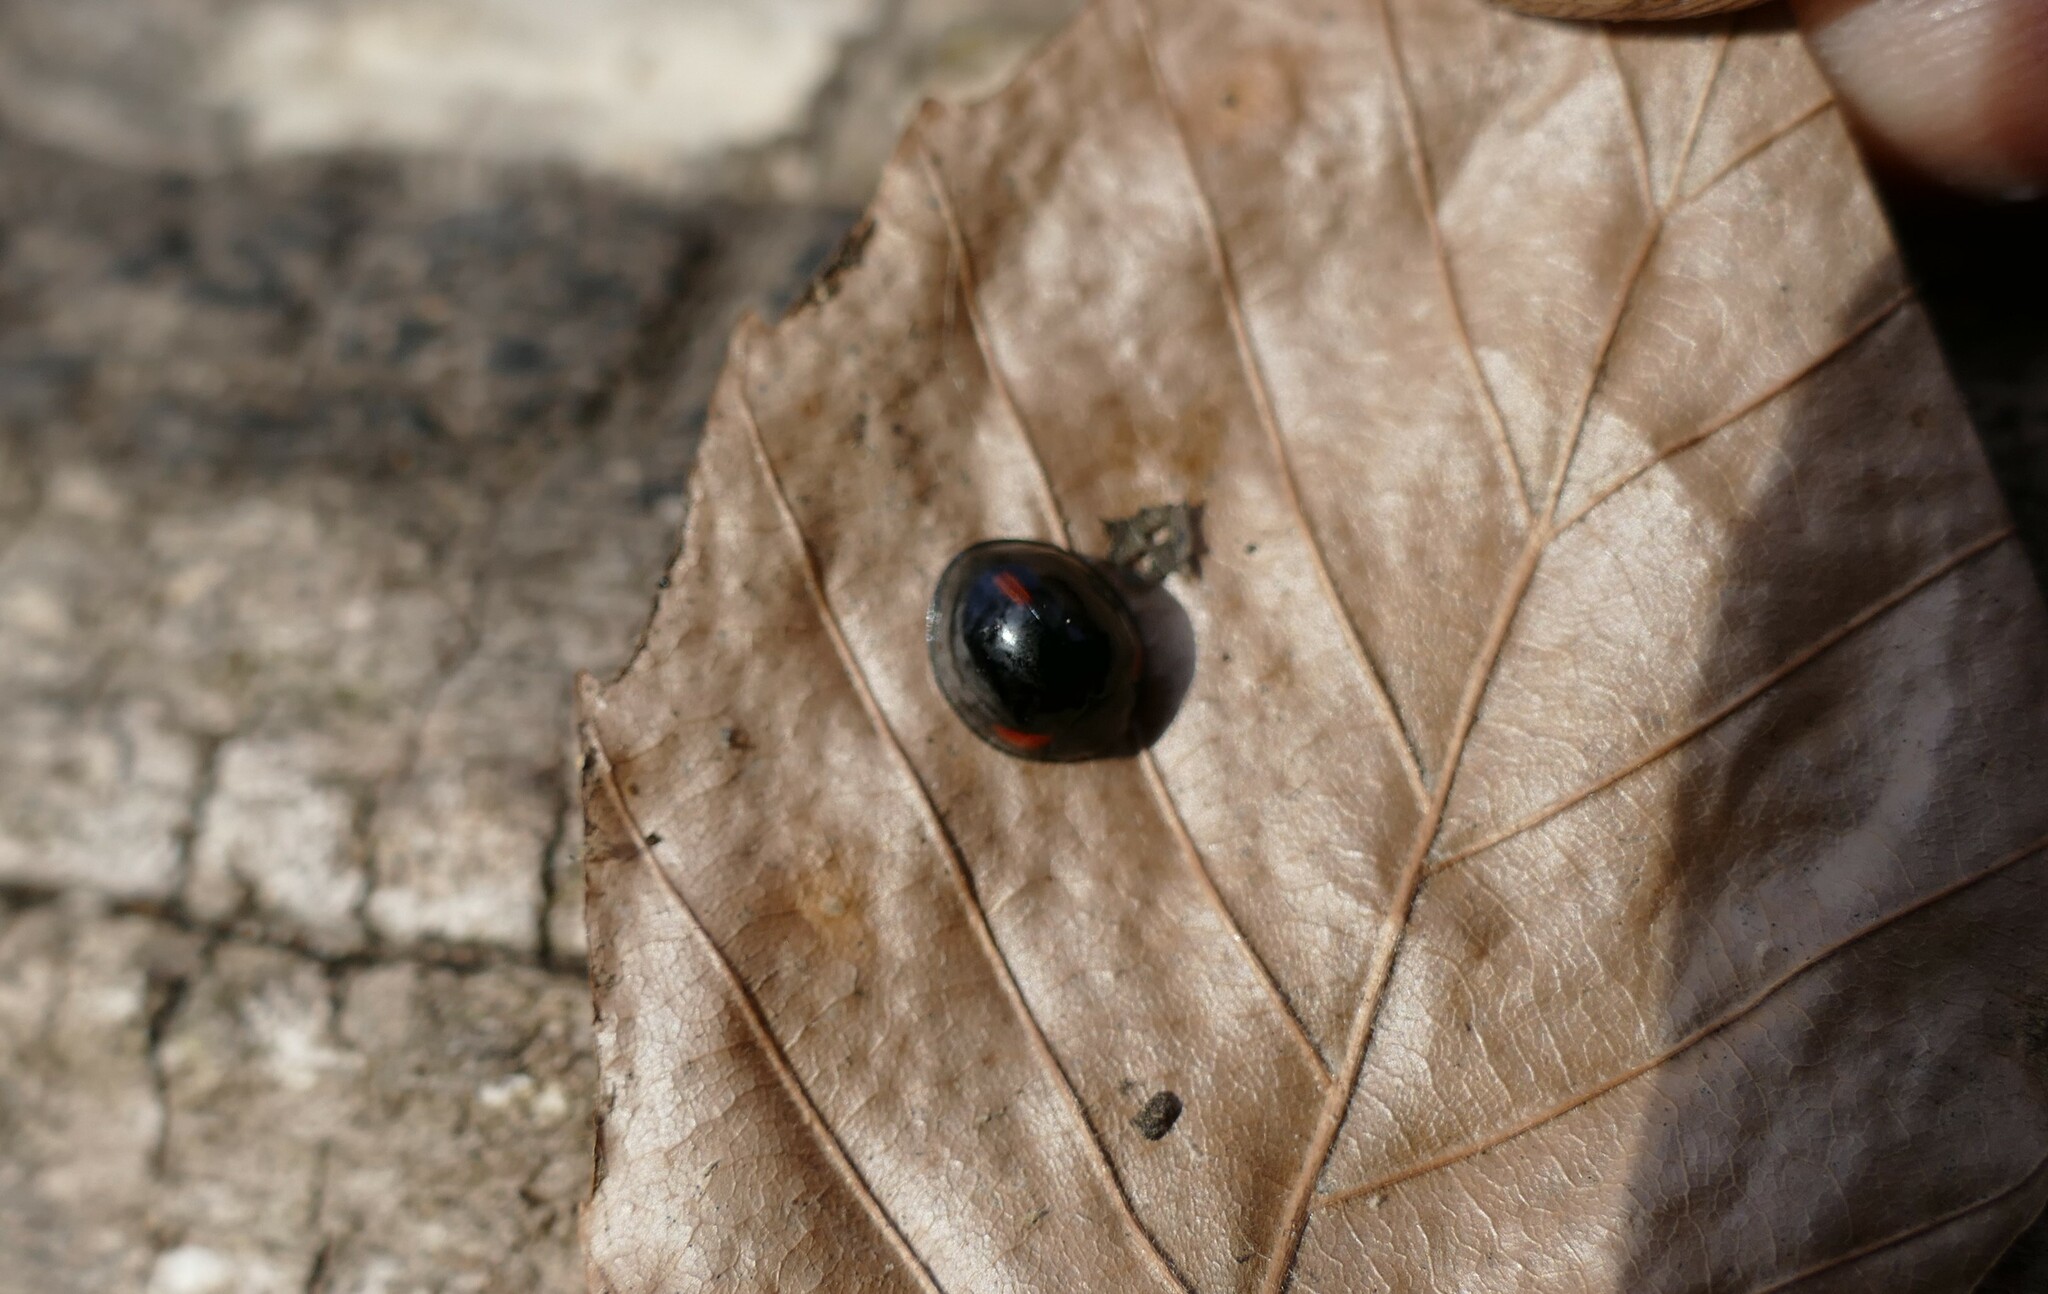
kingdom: Animalia
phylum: Arthropoda
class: Insecta
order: Coleoptera
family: Coccinellidae
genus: Axion
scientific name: Axion tripustulatum
